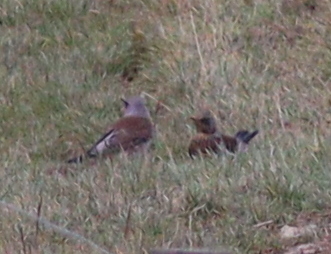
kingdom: Animalia
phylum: Chordata
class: Aves
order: Passeriformes
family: Turdidae
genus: Turdus
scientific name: Turdus pilaris
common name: Fieldfare
